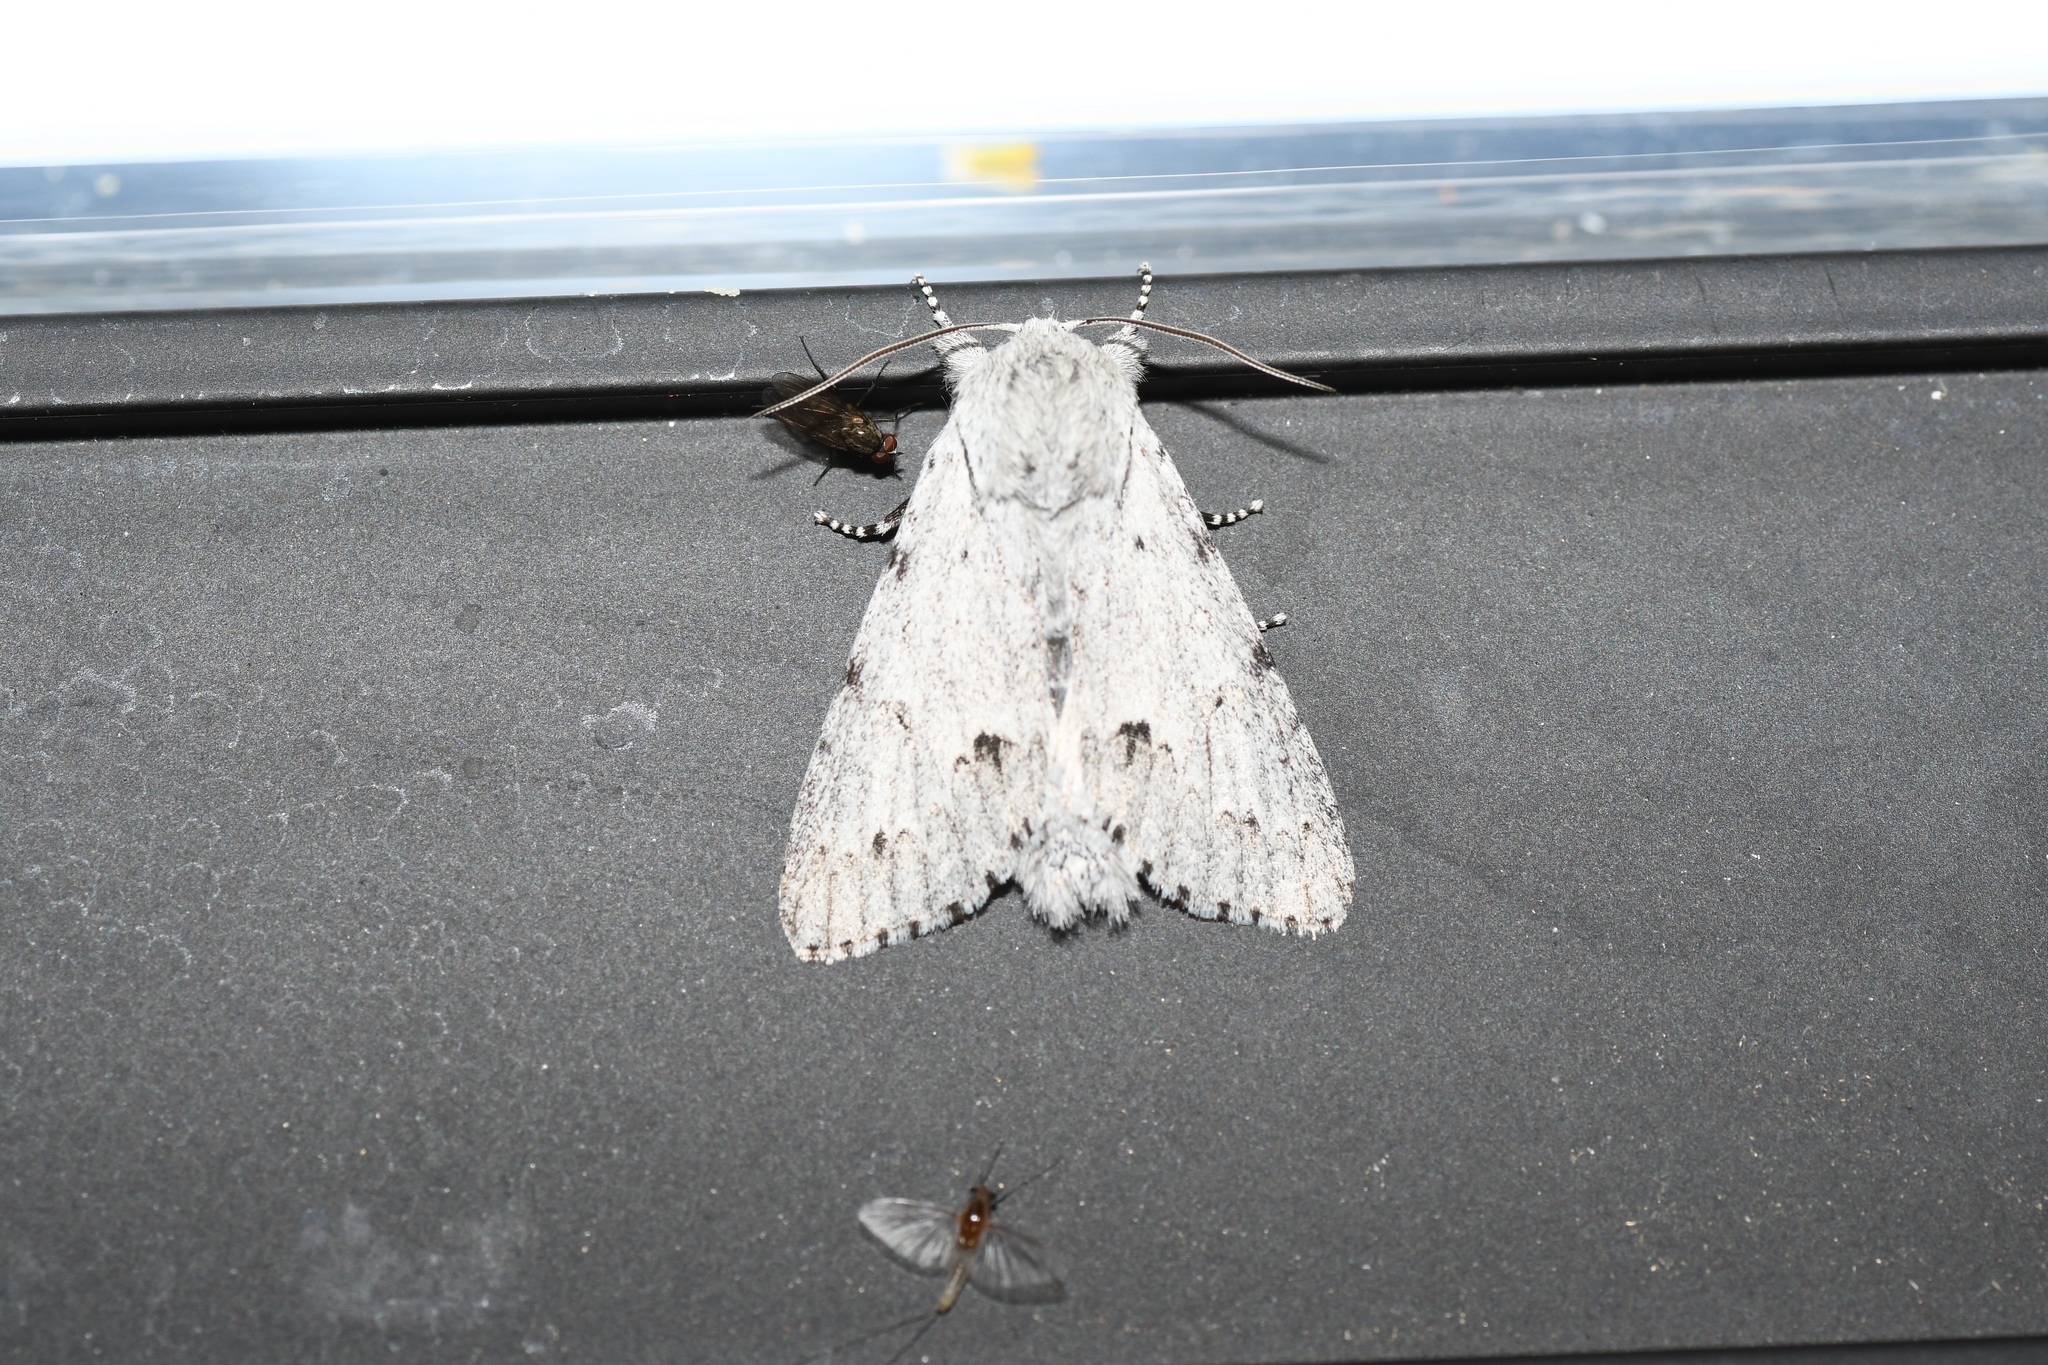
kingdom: Animalia
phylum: Arthropoda
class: Insecta
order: Lepidoptera
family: Noctuidae
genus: Acronicta
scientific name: Acronicta lepusculina
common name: Cottonwood dagger
